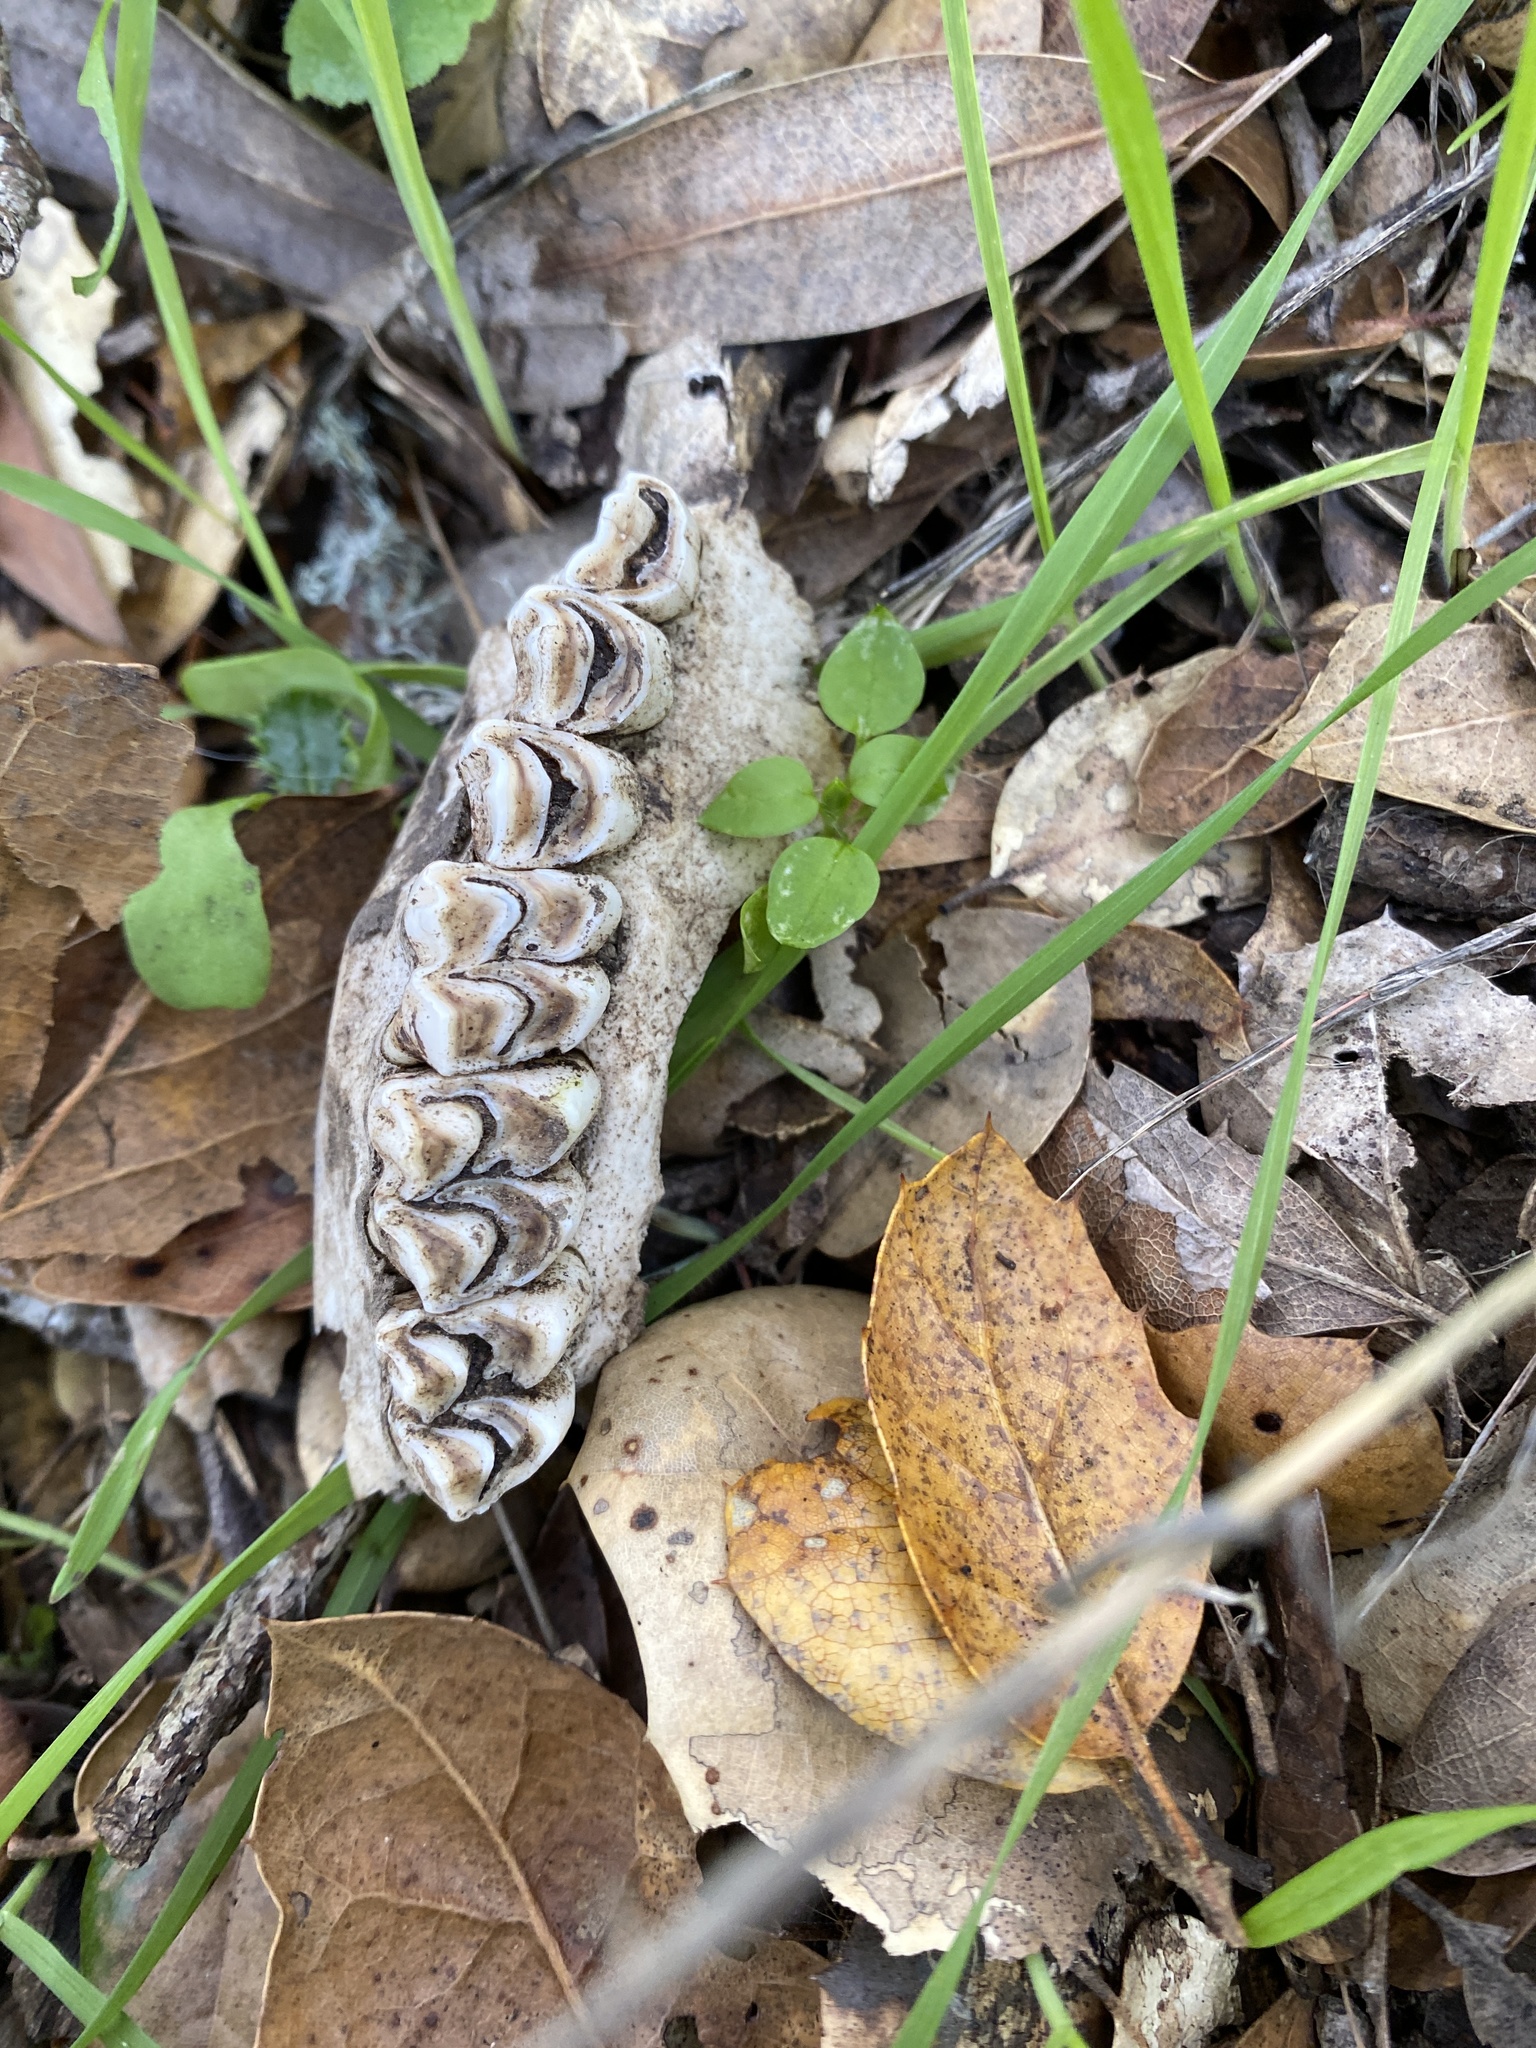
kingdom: Animalia
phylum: Chordata
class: Mammalia
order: Artiodactyla
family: Cervidae
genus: Odocoileus
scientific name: Odocoileus hemionus
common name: Mule deer
